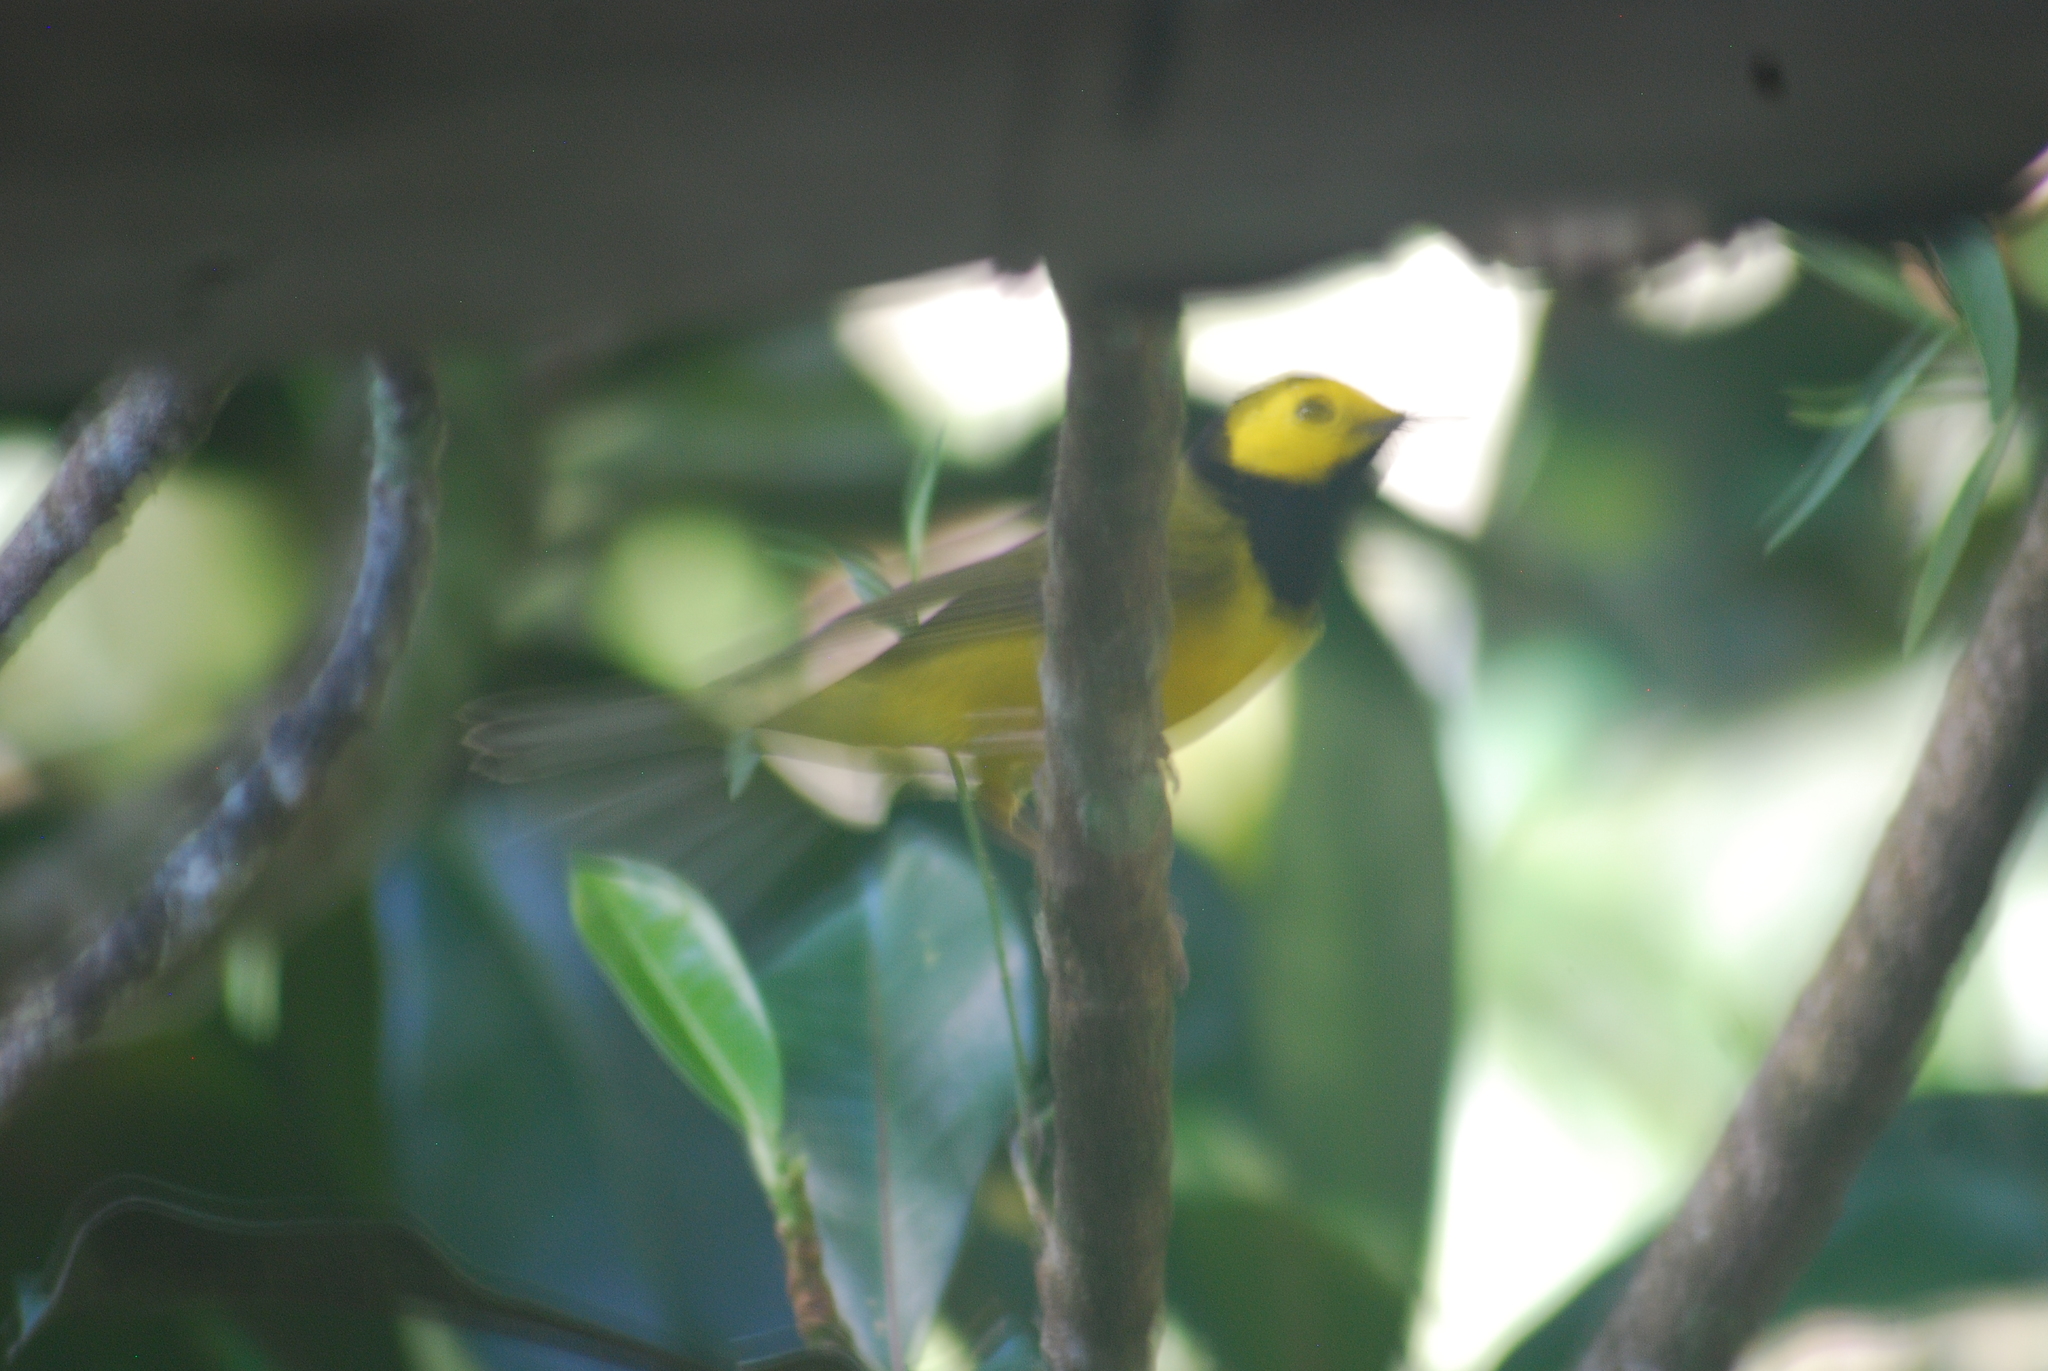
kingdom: Animalia
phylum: Chordata
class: Aves
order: Passeriformes
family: Parulidae
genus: Setophaga
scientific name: Setophaga citrina
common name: Hooded warbler
